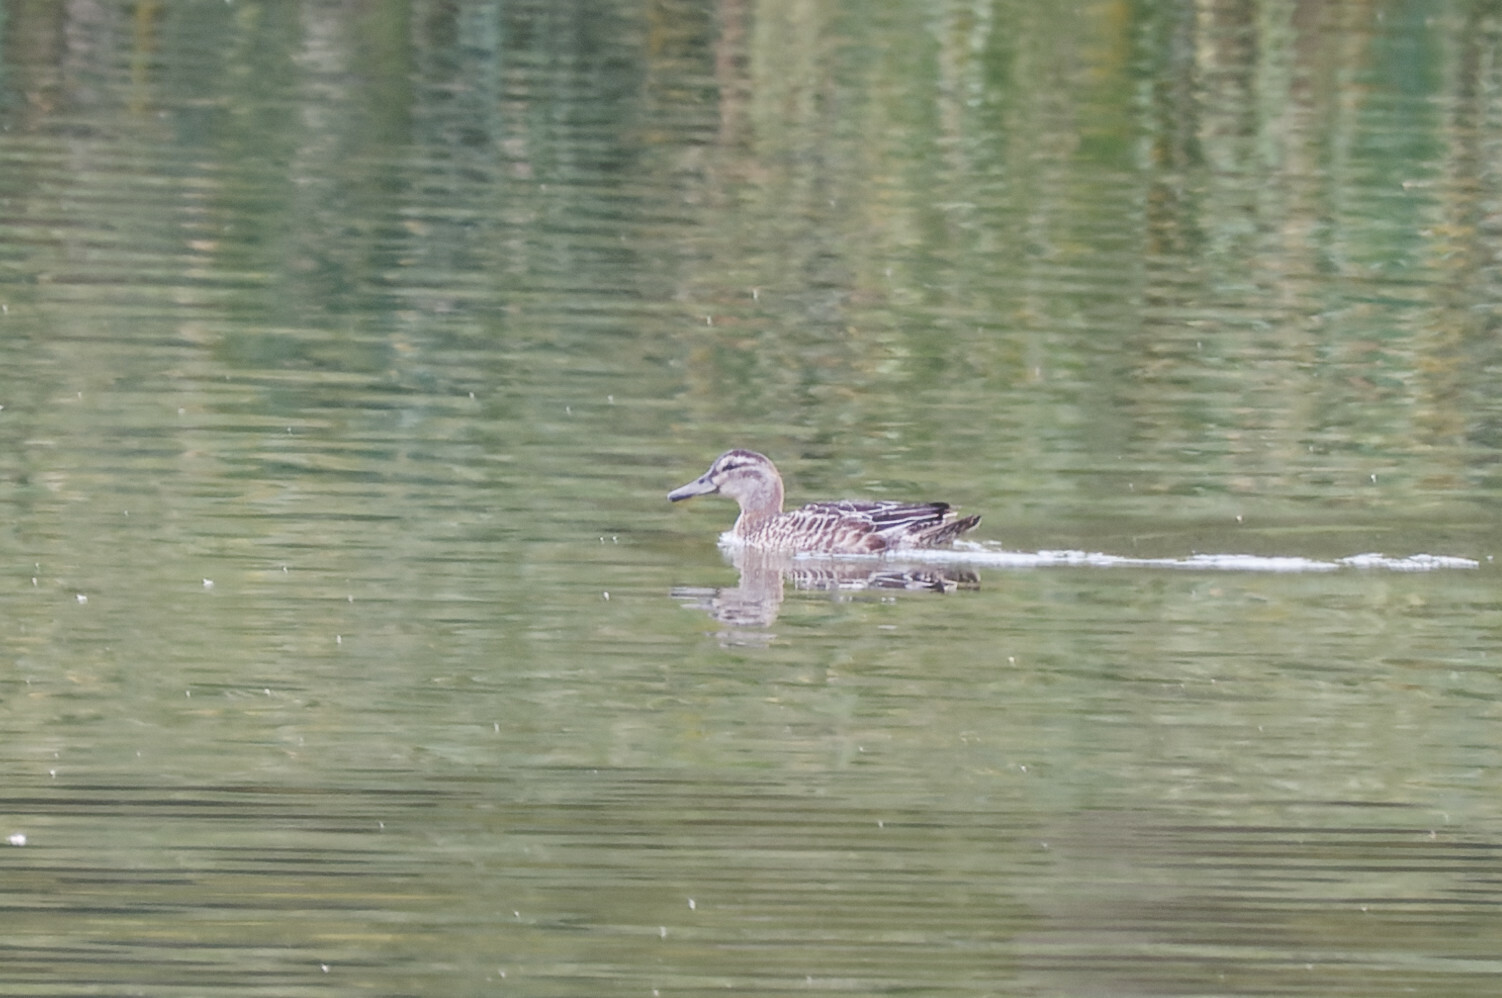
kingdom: Animalia
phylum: Chordata
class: Aves
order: Anseriformes
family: Anatidae
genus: Spatula
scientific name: Spatula querquedula
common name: Garganey
